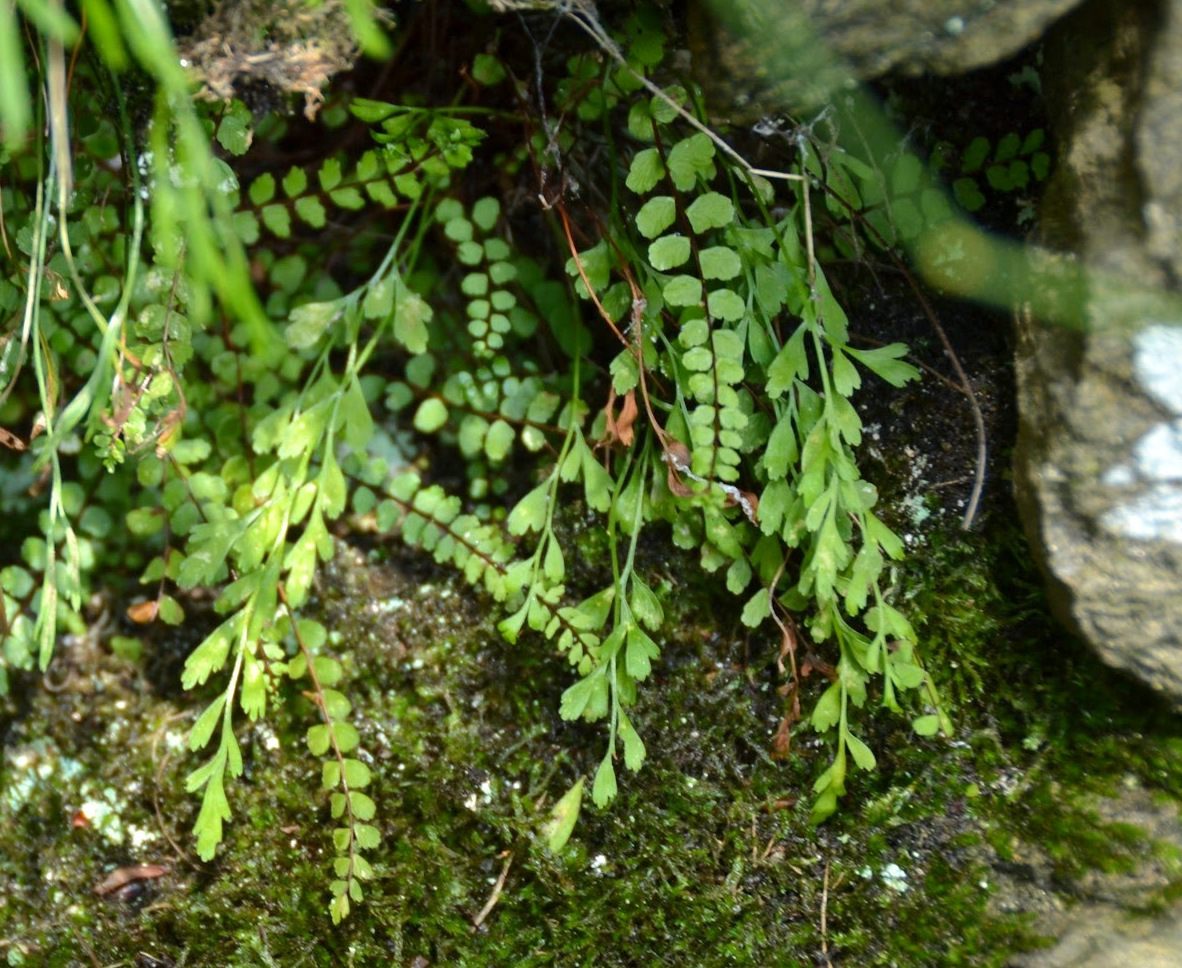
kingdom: Plantae
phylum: Tracheophyta
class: Polypodiopsida
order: Polypodiales
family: Aspleniaceae
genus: Asplenium
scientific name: Asplenium alternifolium
